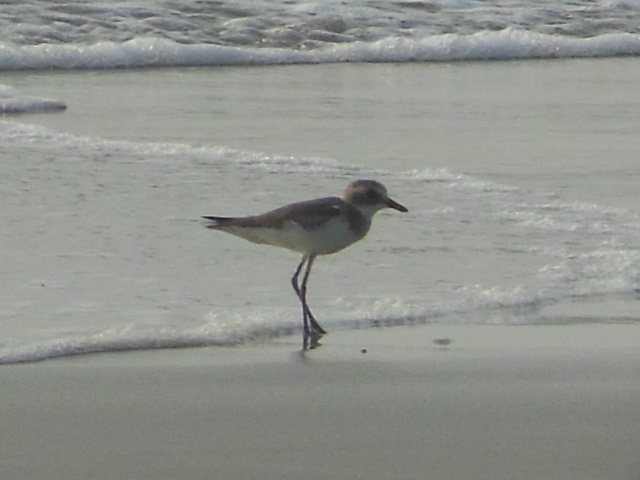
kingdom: Animalia
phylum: Chordata
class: Aves
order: Charadriiformes
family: Charadriidae
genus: Charadrius
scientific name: Charadrius leschenaultii
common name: Greater sand plover
